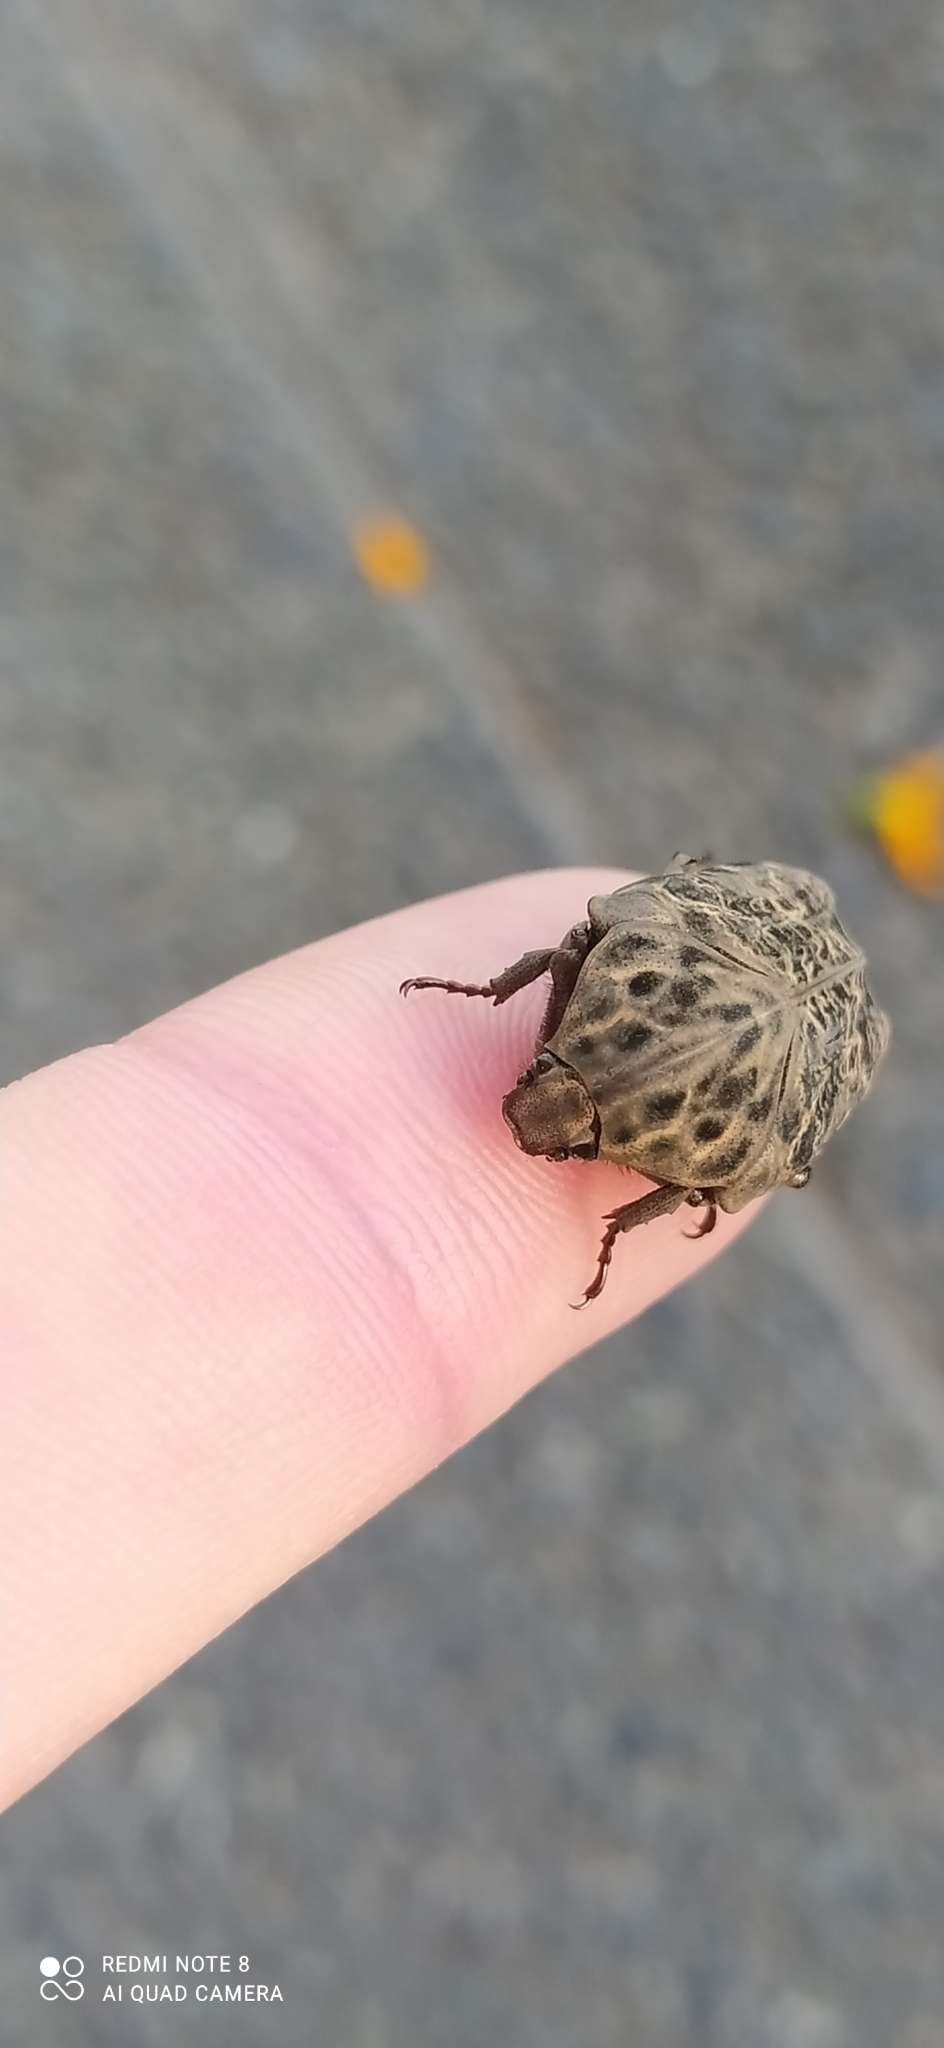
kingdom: Animalia
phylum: Arthropoda
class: Insecta
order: Coleoptera
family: Scarabaeidae
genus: Gymnetis
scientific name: Gymnetis chalcipes
